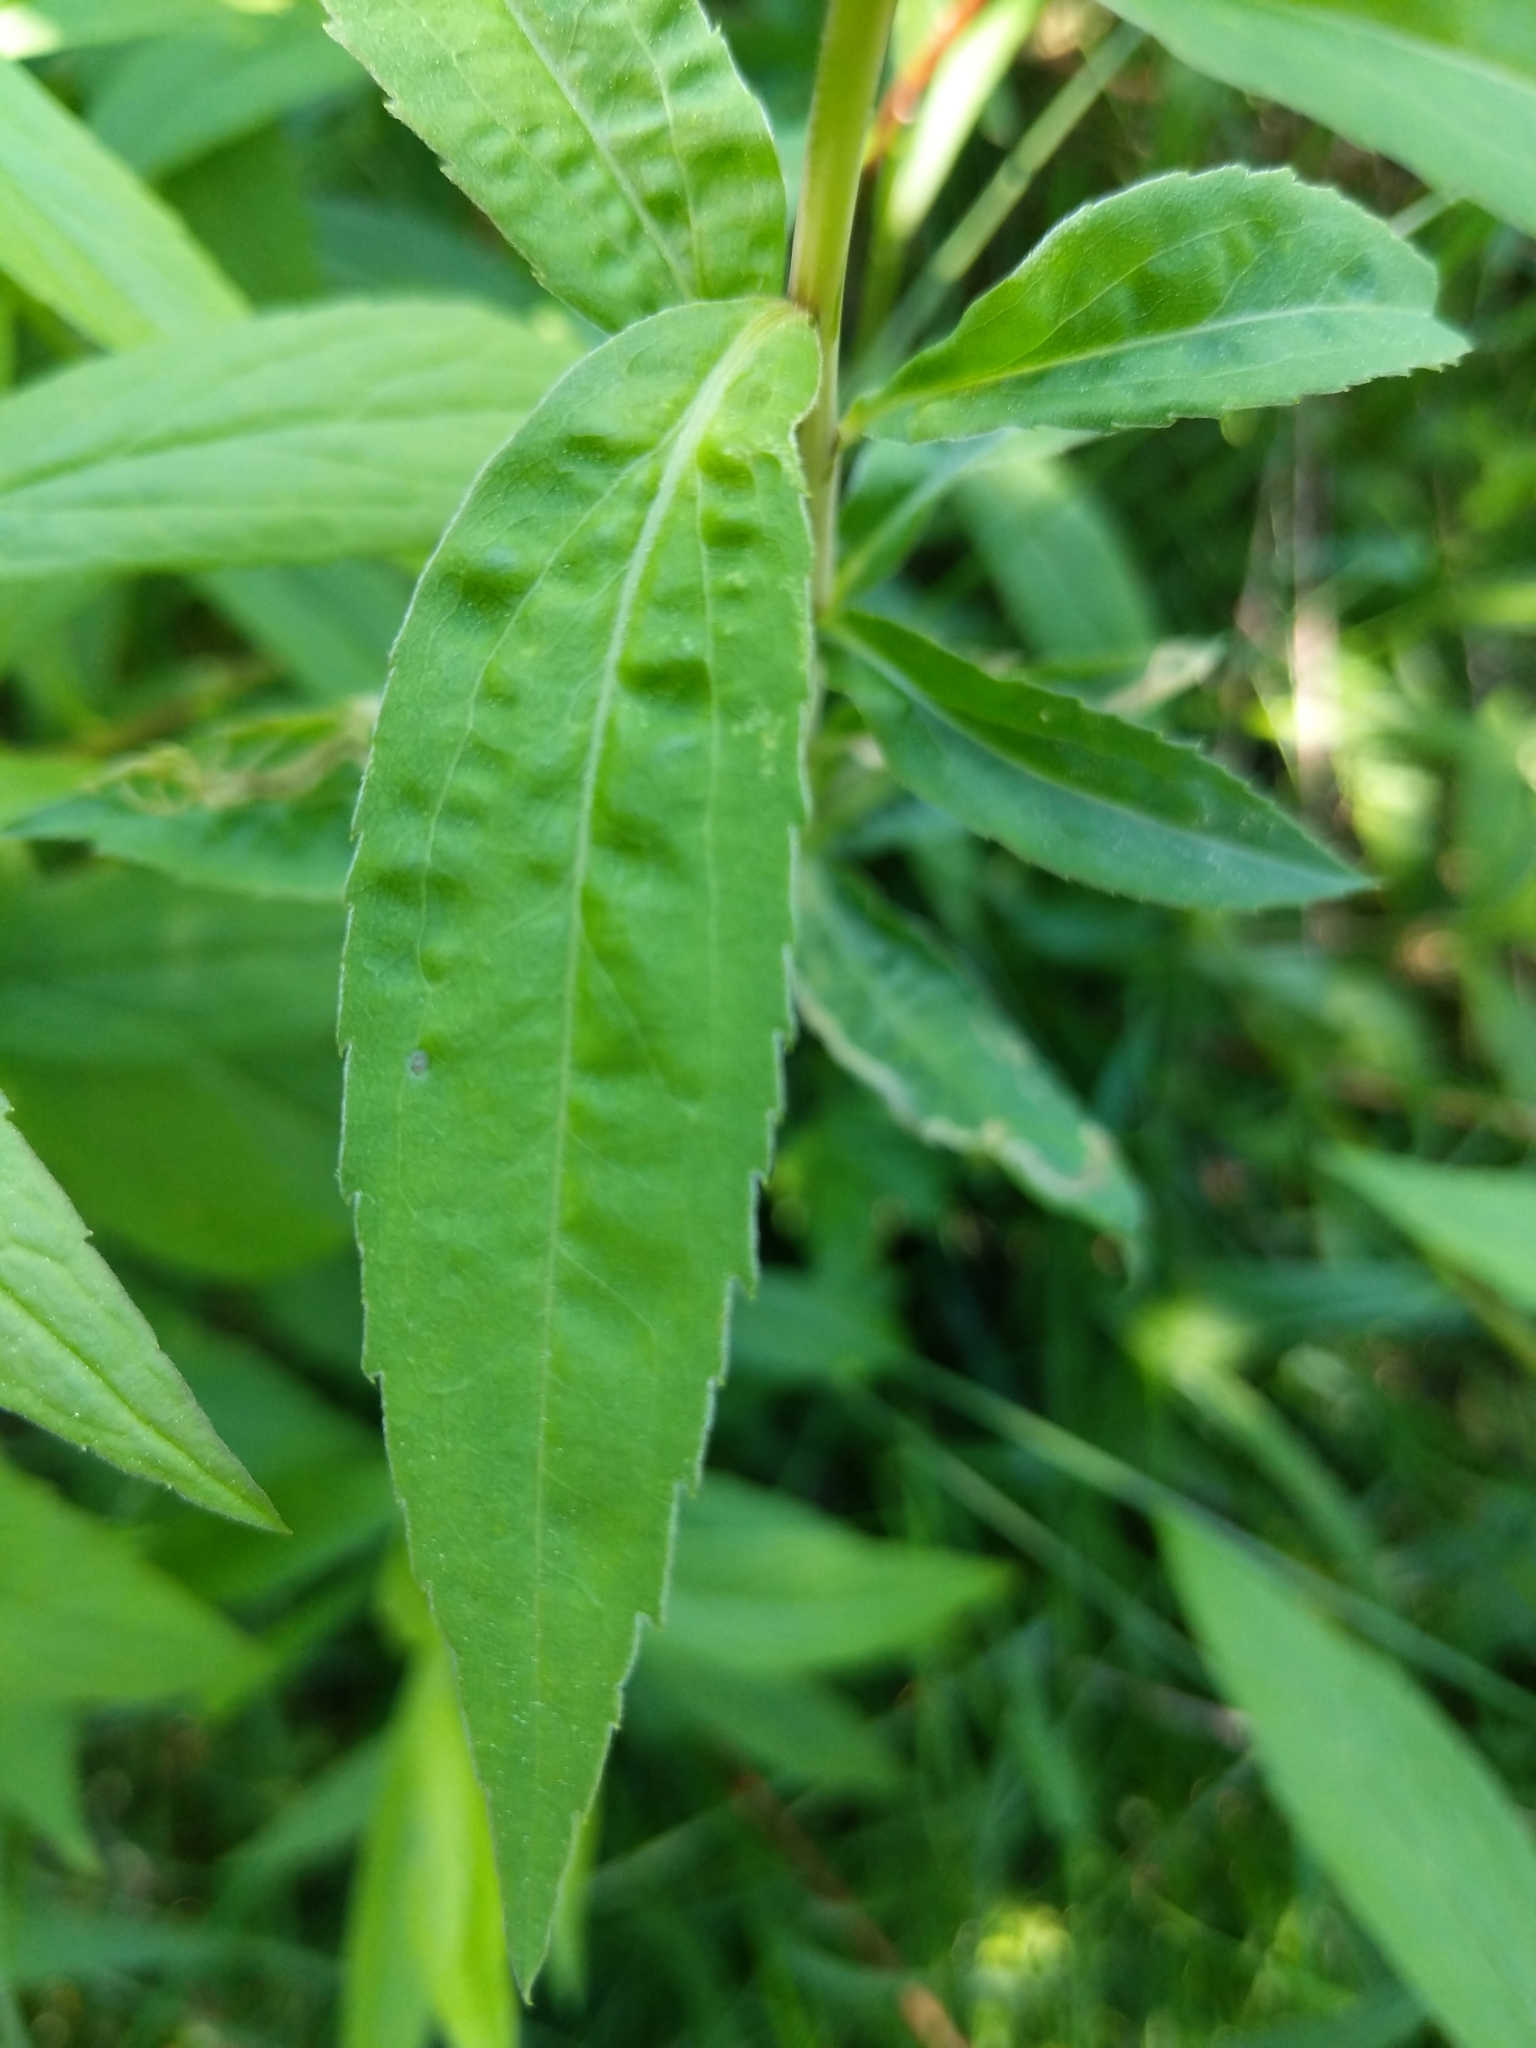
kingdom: Plantae
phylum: Tracheophyta
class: Magnoliopsida
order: Asterales
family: Asteraceae
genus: Solidago
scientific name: Solidago gigantea
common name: Giant goldenrod
